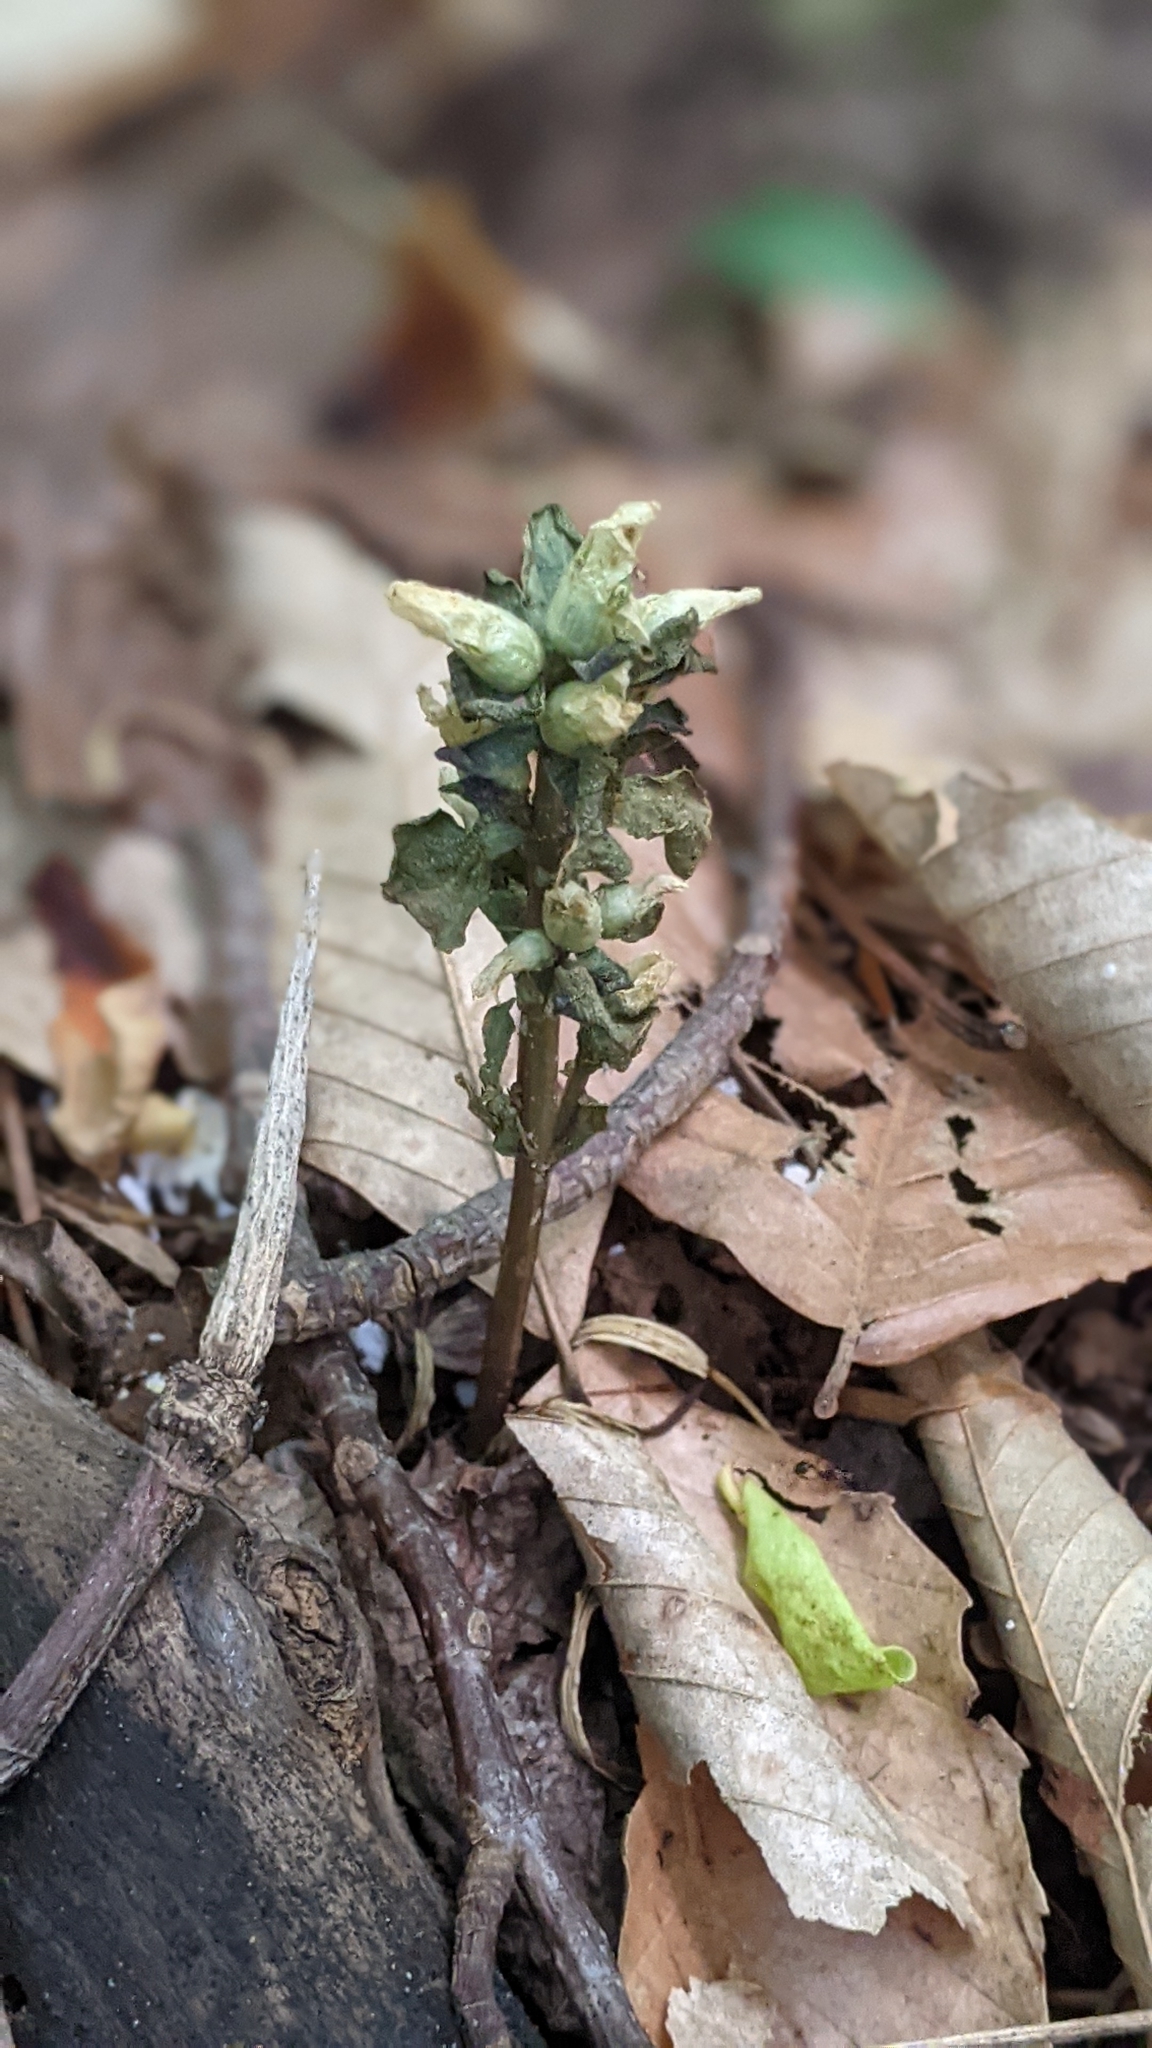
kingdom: Plantae
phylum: Tracheophyta
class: Magnoliopsida
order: Gentianales
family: Gentianaceae
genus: Obolaria
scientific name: Obolaria virginica
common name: Pennywort
